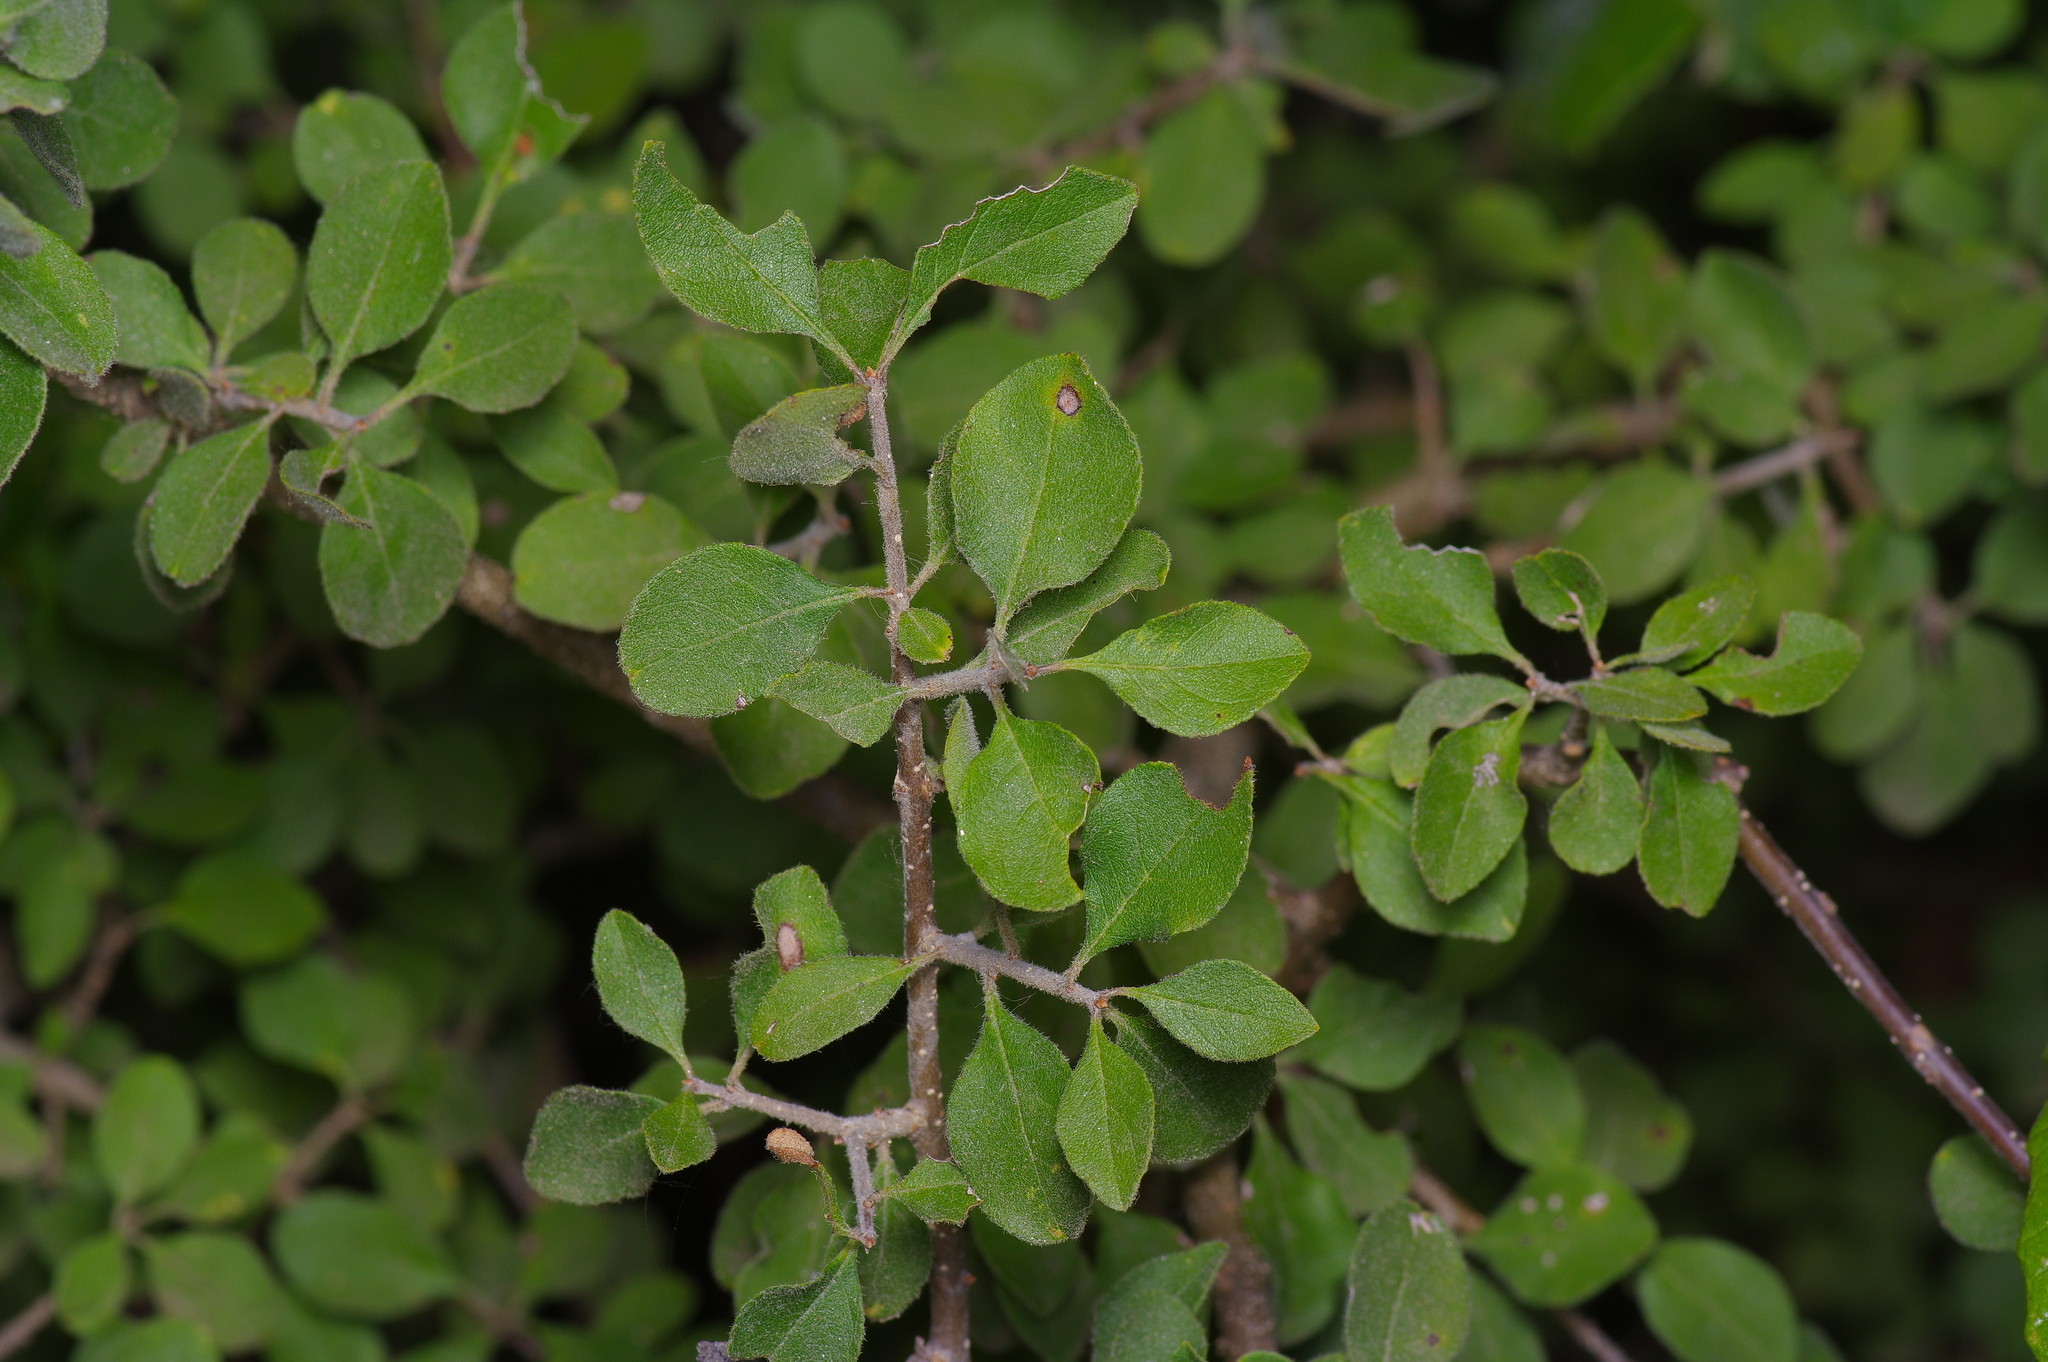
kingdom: Plantae
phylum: Tracheophyta
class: Magnoliopsida
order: Lamiales
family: Oleaceae
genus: Forestiera
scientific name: Forestiera pubescens
